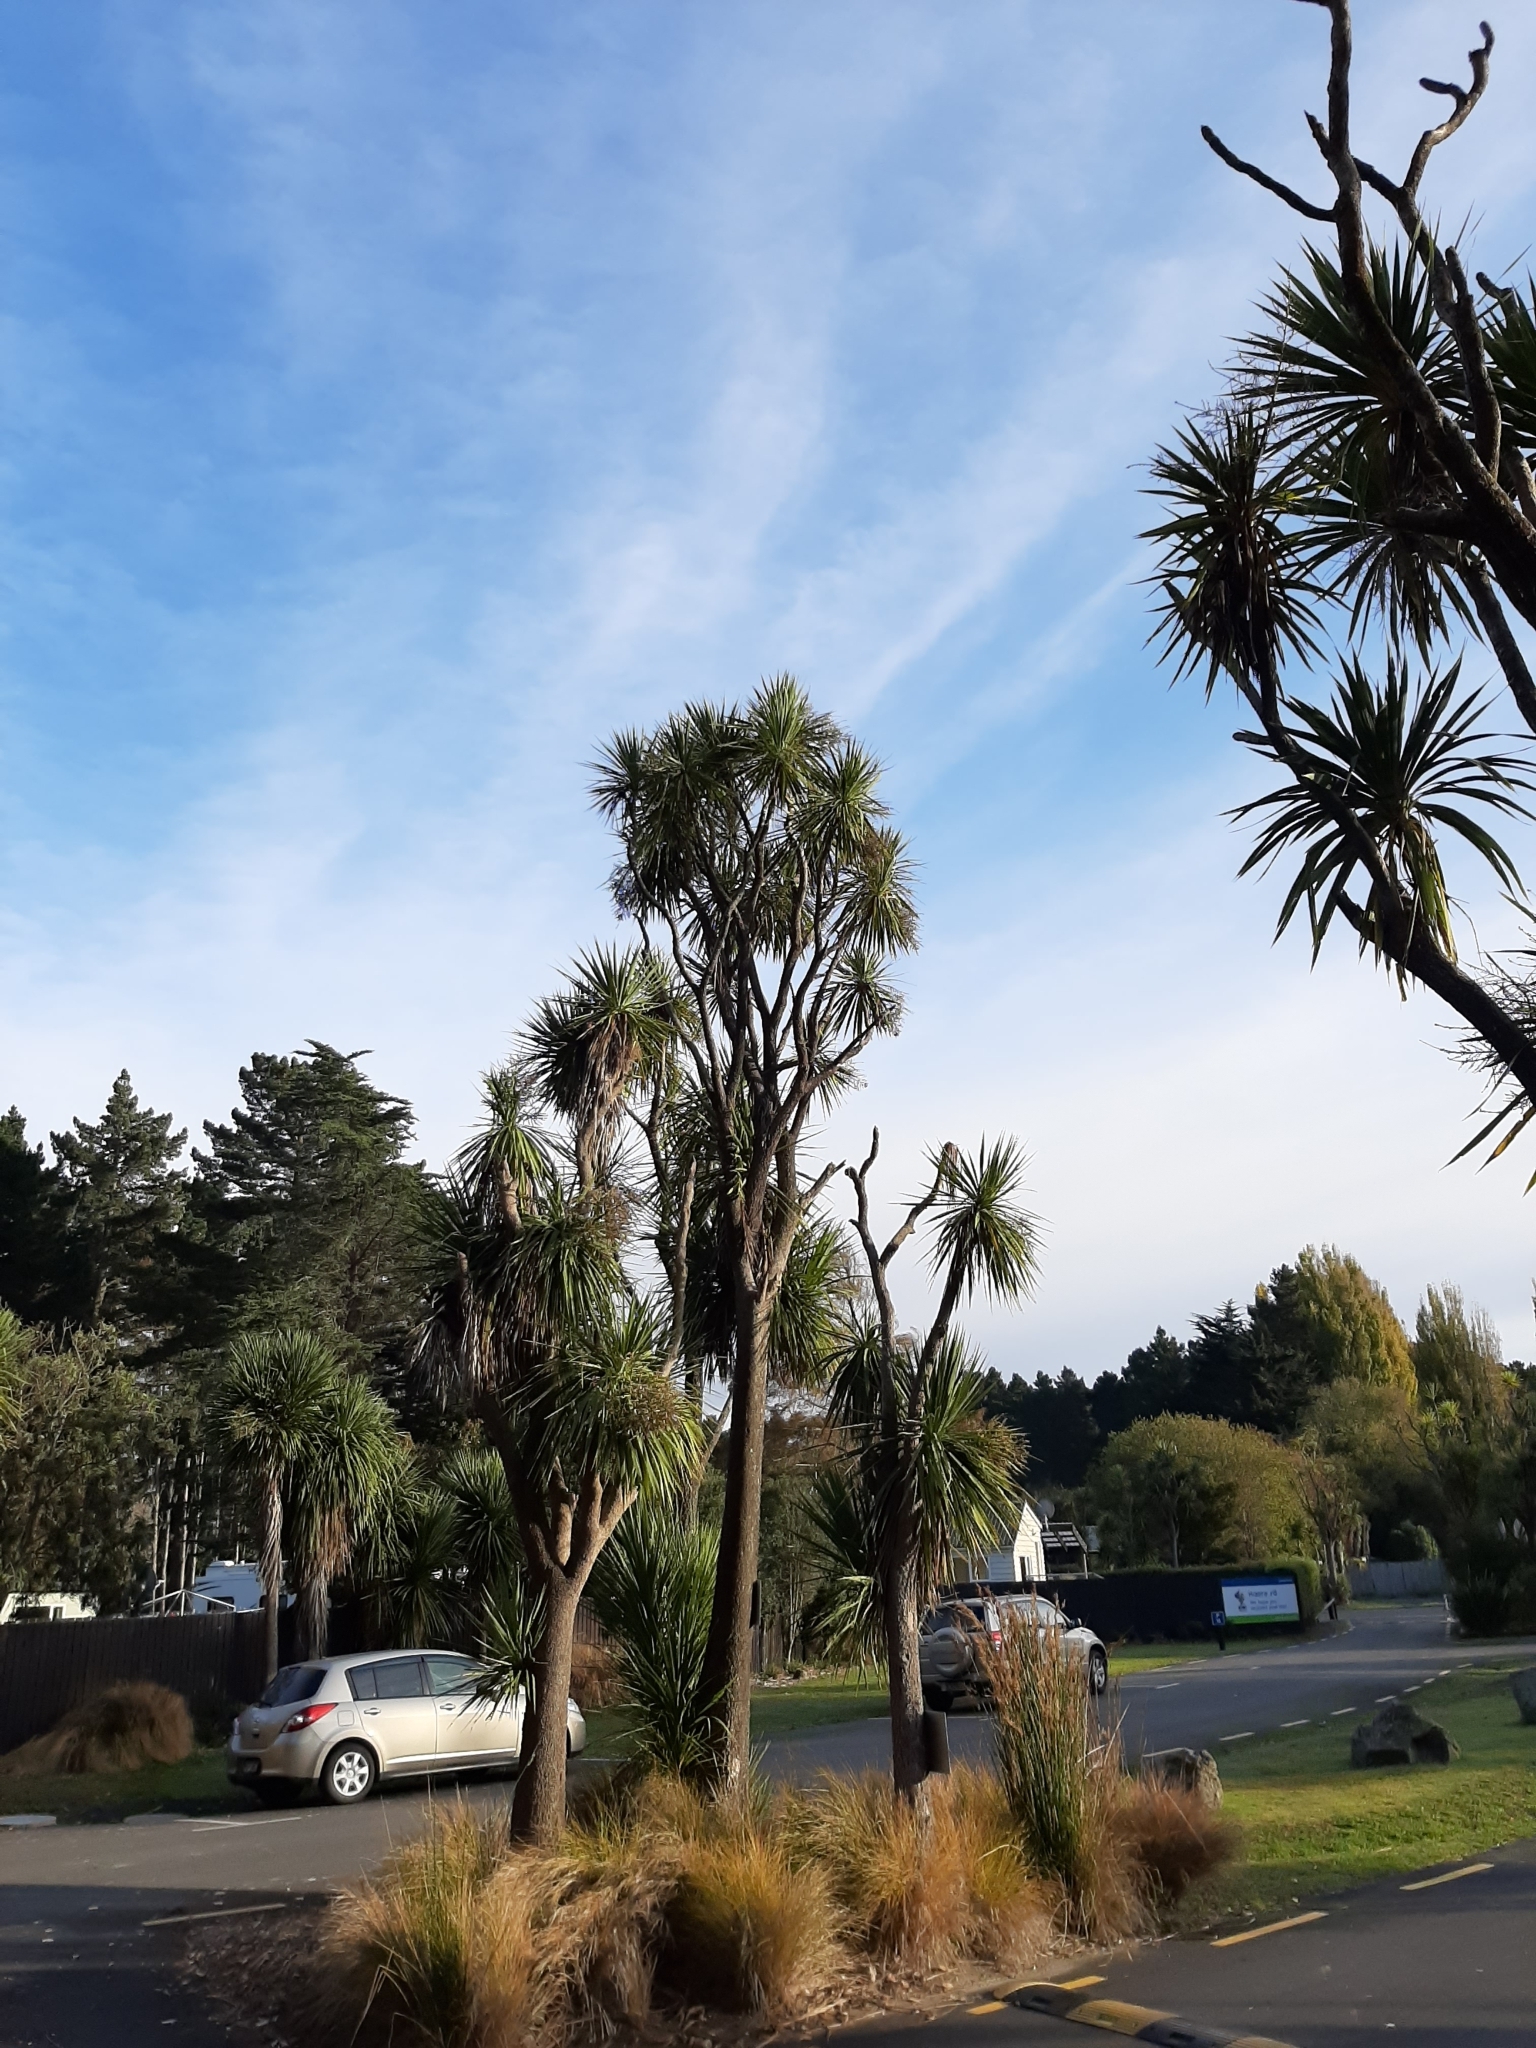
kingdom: Plantae
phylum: Tracheophyta
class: Liliopsida
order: Asparagales
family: Asparagaceae
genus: Cordyline
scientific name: Cordyline australis
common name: Cabbage-palm
